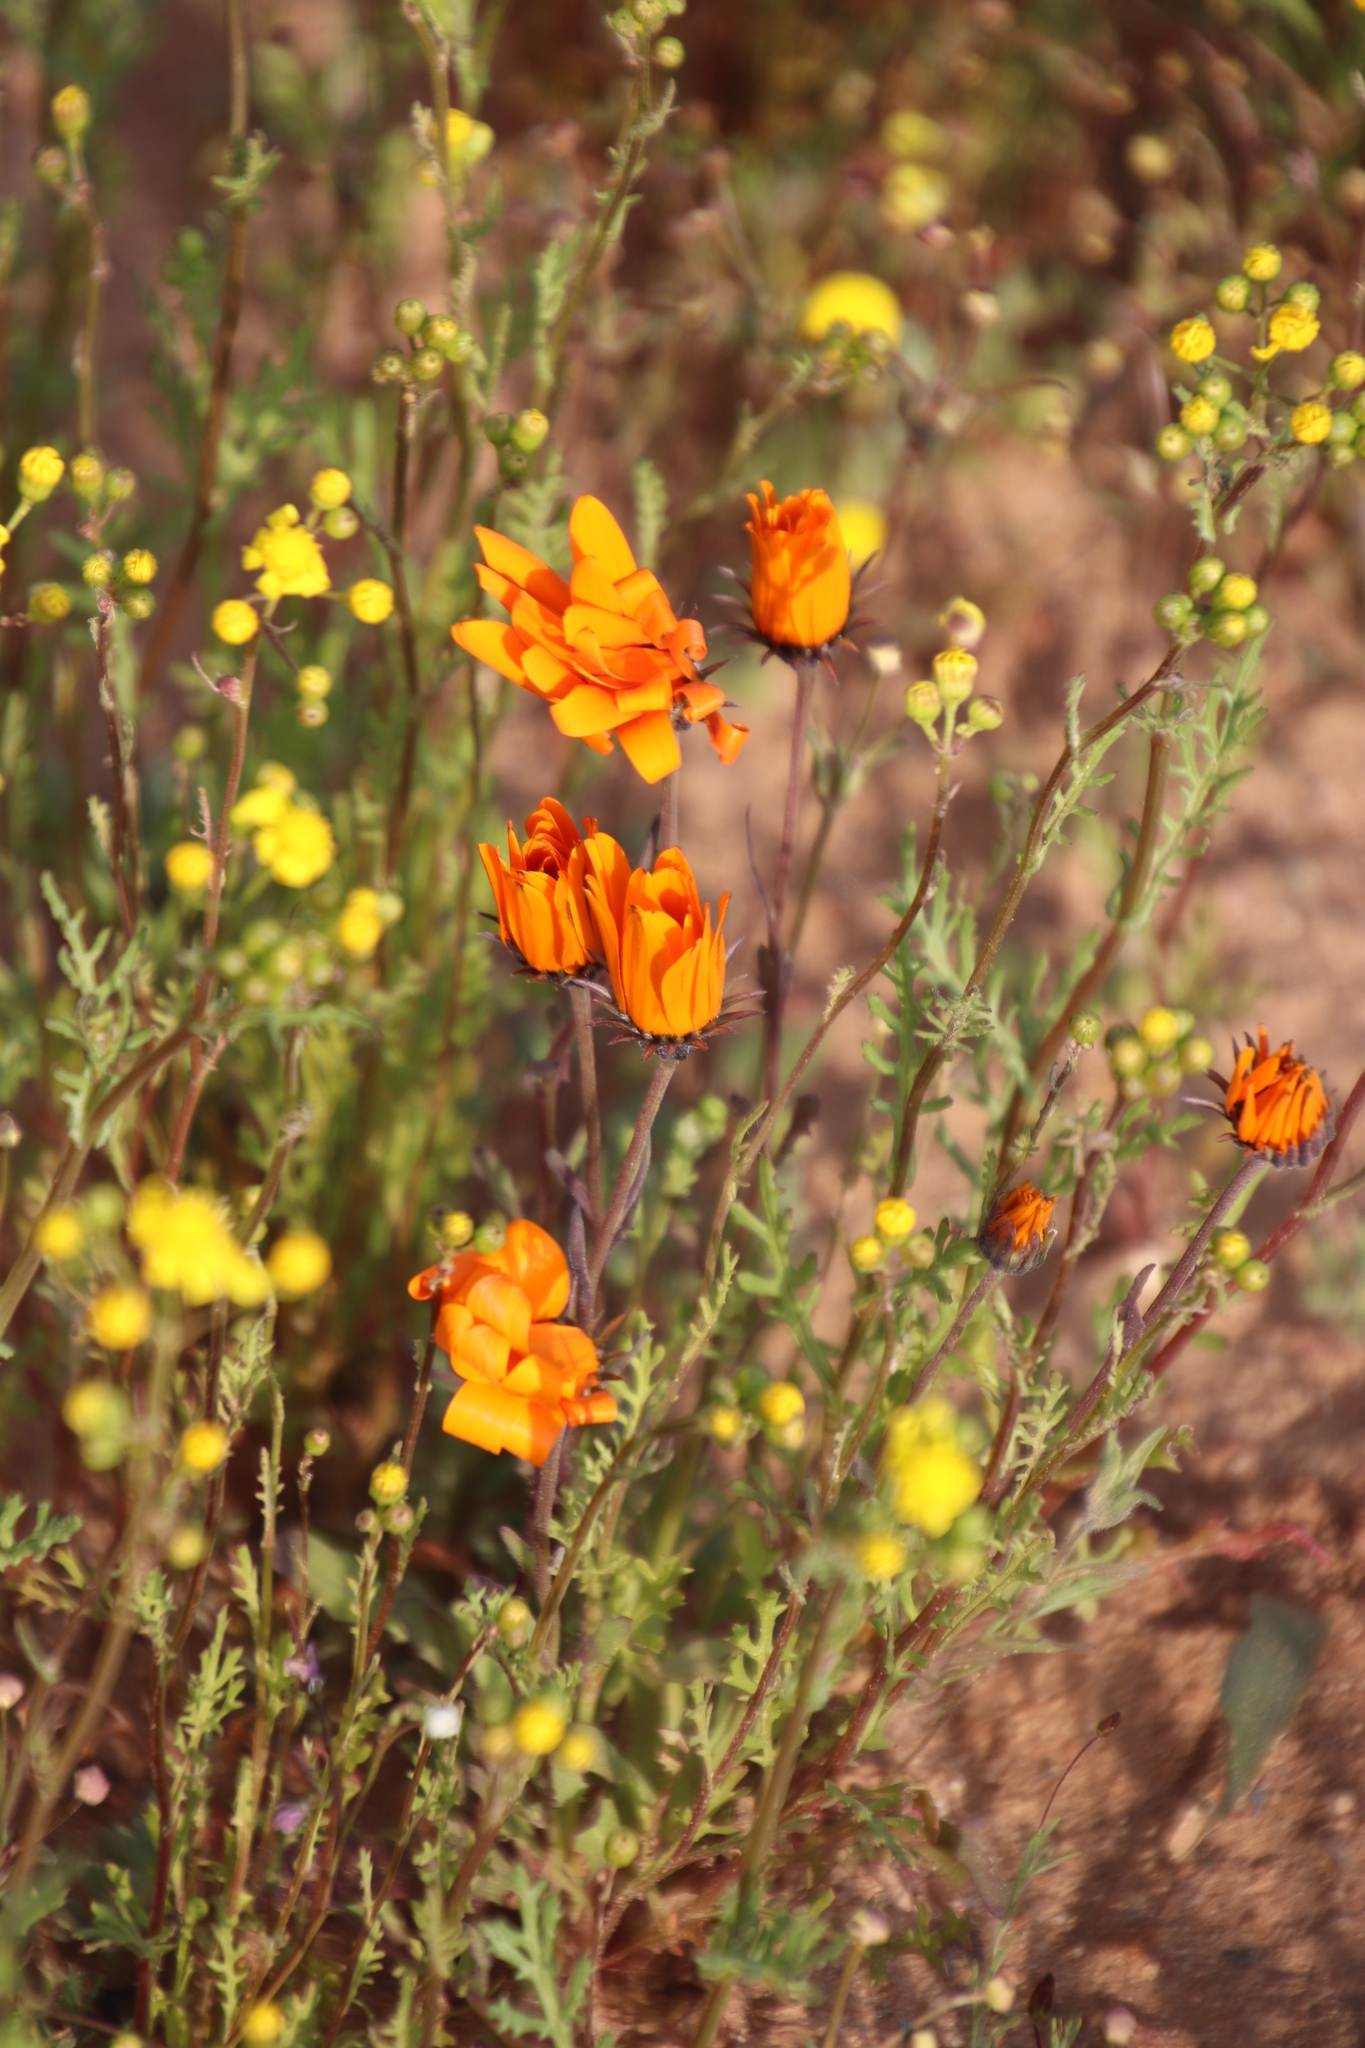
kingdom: Plantae
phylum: Tracheophyta
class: Magnoliopsida
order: Asterales
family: Asteraceae
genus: Dimorphotheca
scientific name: Dimorphotheca sinuata
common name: Glandular cape marigold
